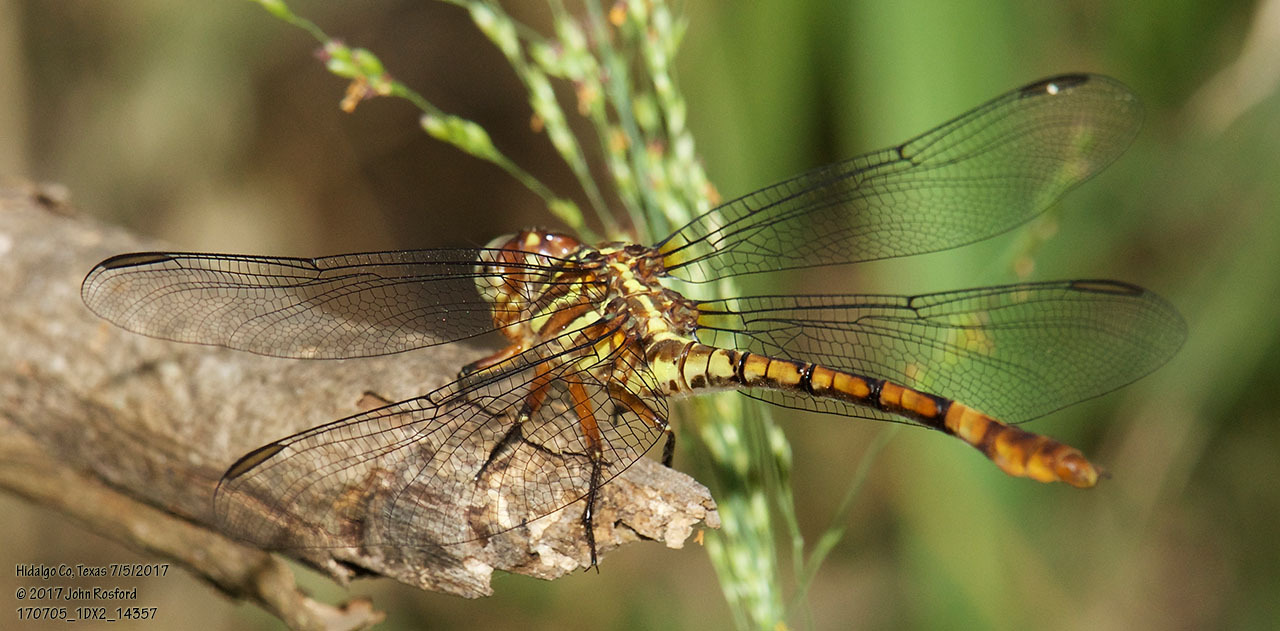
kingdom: Animalia
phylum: Arthropoda
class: Insecta
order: Odonata
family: Gomphidae
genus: Aphylla
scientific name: Aphylla protracta
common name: Narrow-striped forceptail
